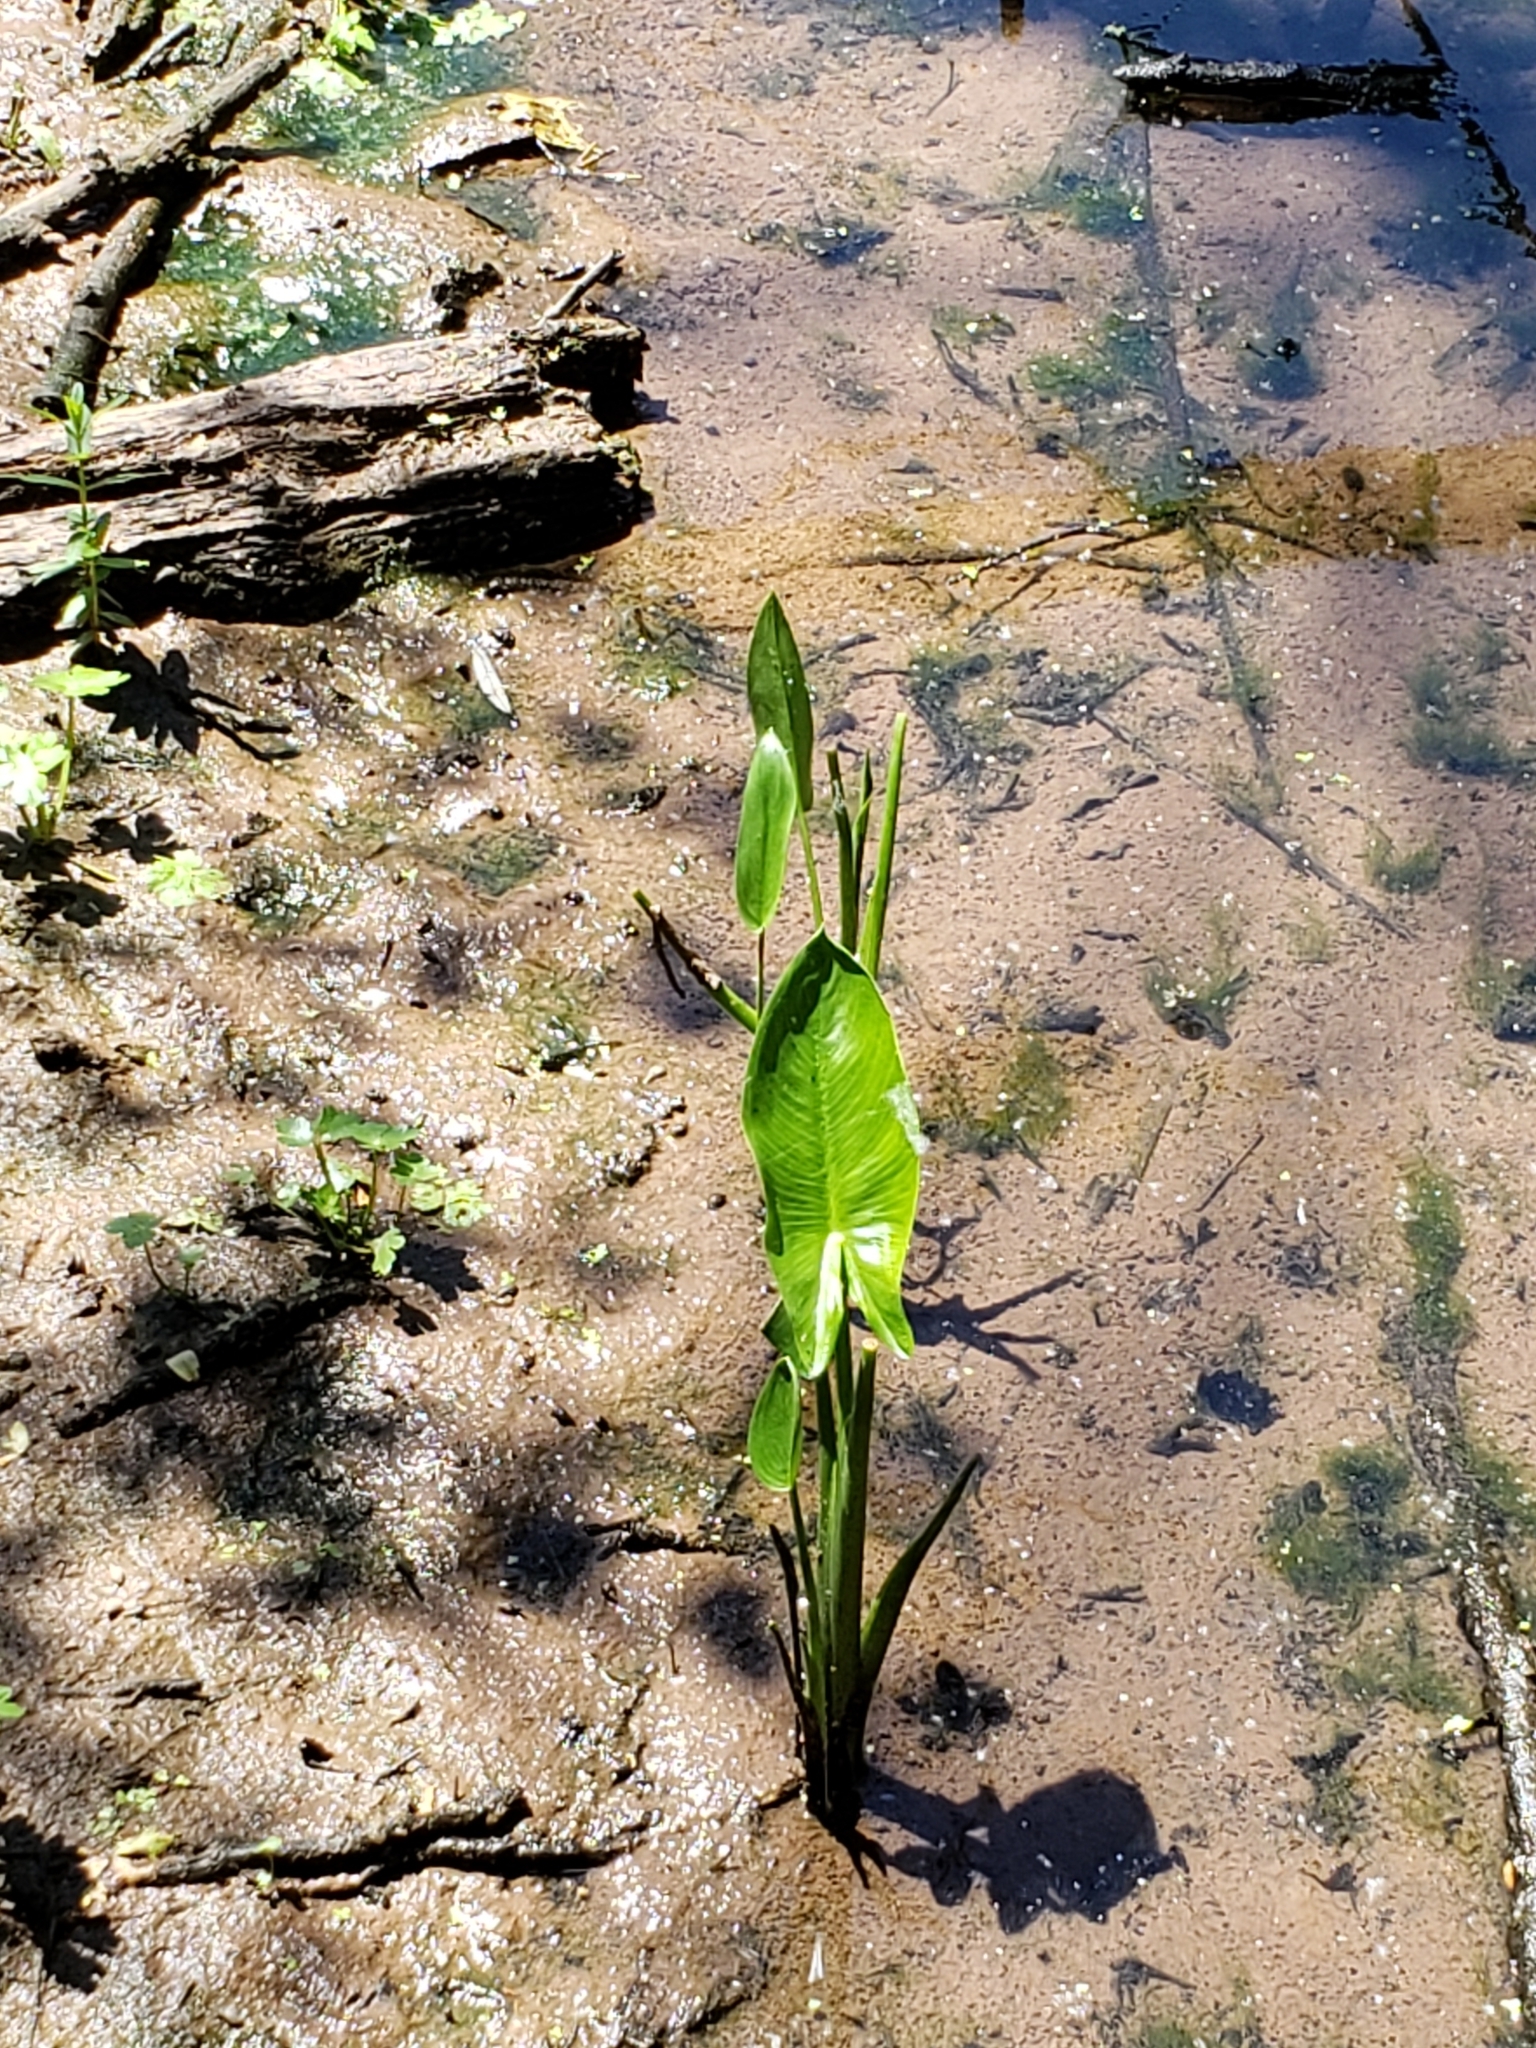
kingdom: Plantae
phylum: Tracheophyta
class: Liliopsida
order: Alismatales
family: Araceae
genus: Peltandra
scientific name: Peltandra virginica
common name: Arrow arum
